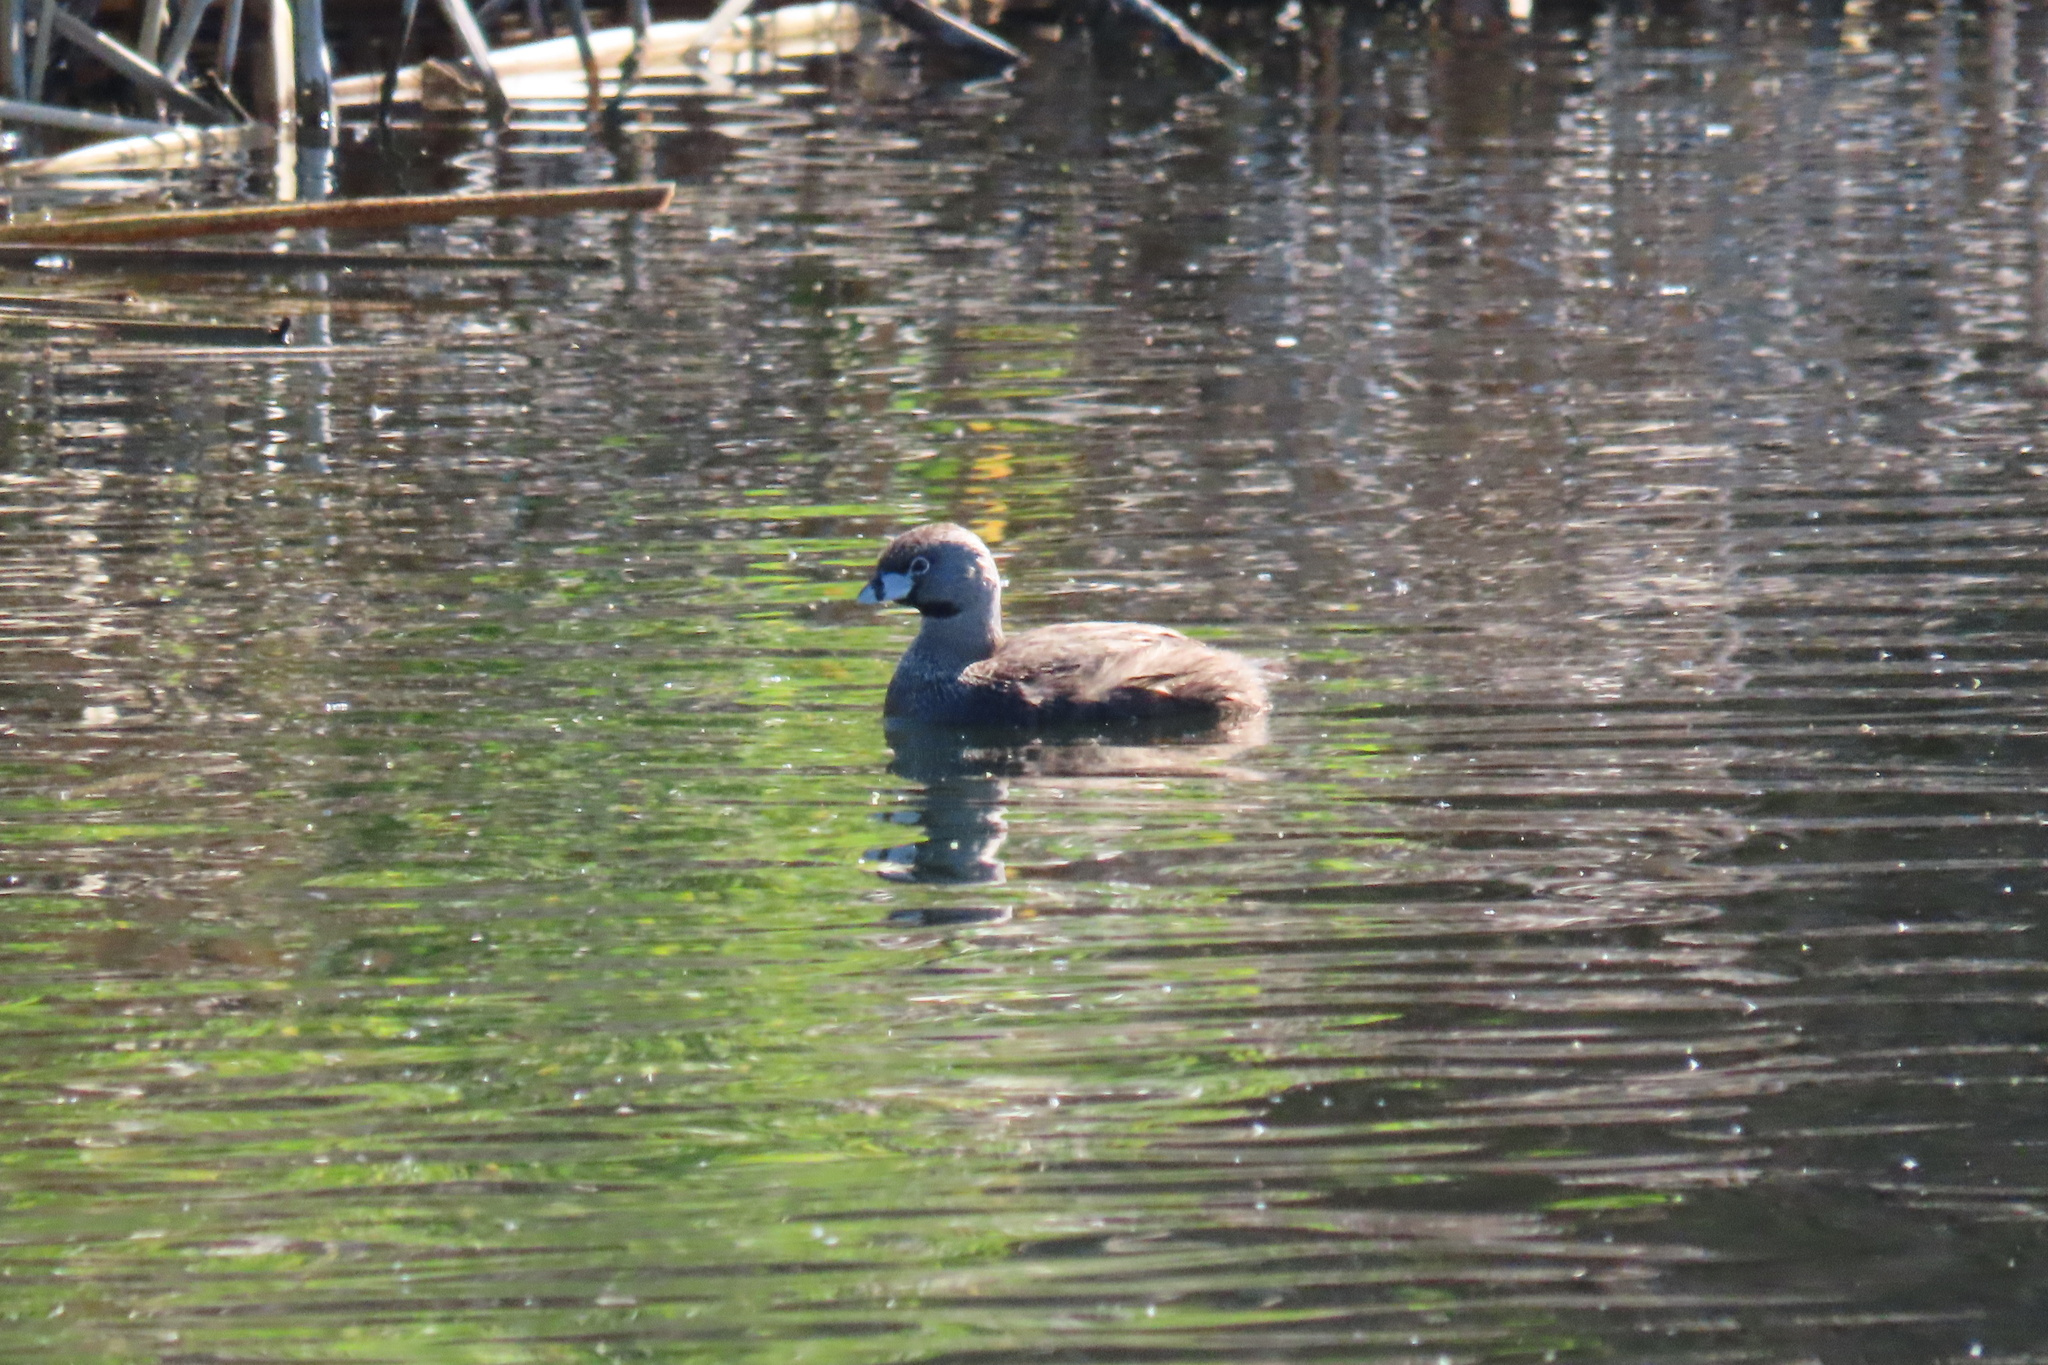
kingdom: Animalia
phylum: Chordata
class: Aves
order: Podicipediformes
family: Podicipedidae
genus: Podilymbus
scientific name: Podilymbus podiceps
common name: Pied-billed grebe
